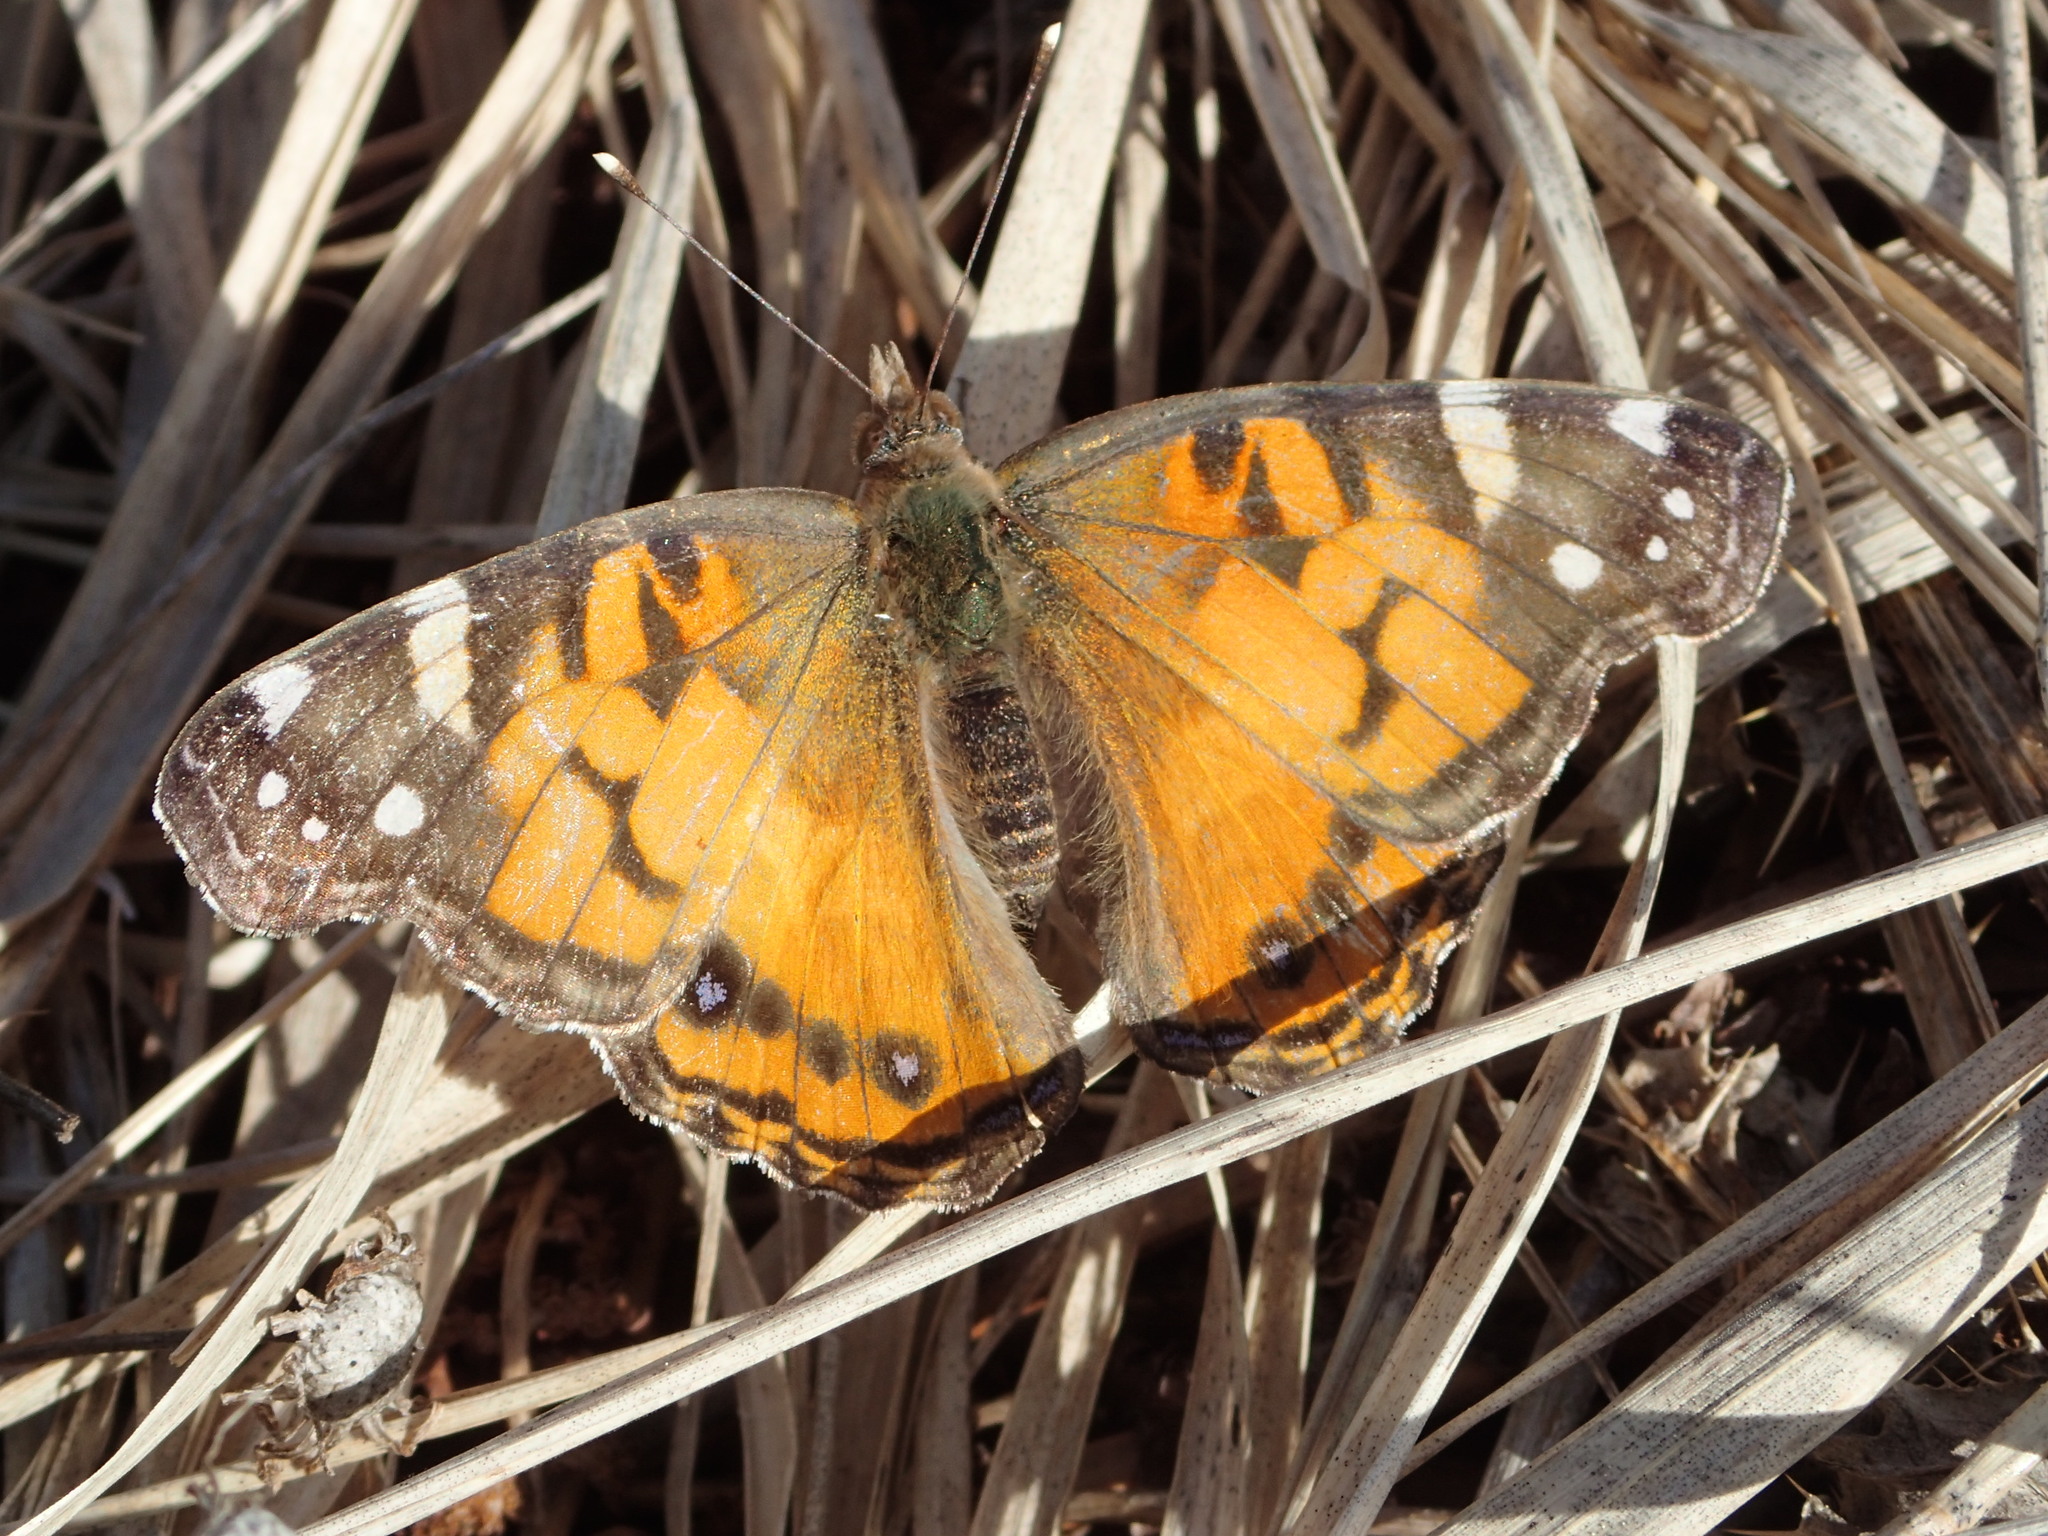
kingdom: Animalia
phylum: Arthropoda
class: Insecta
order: Lepidoptera
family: Nymphalidae
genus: Vanessa
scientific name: Vanessa virginiensis
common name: American lady
